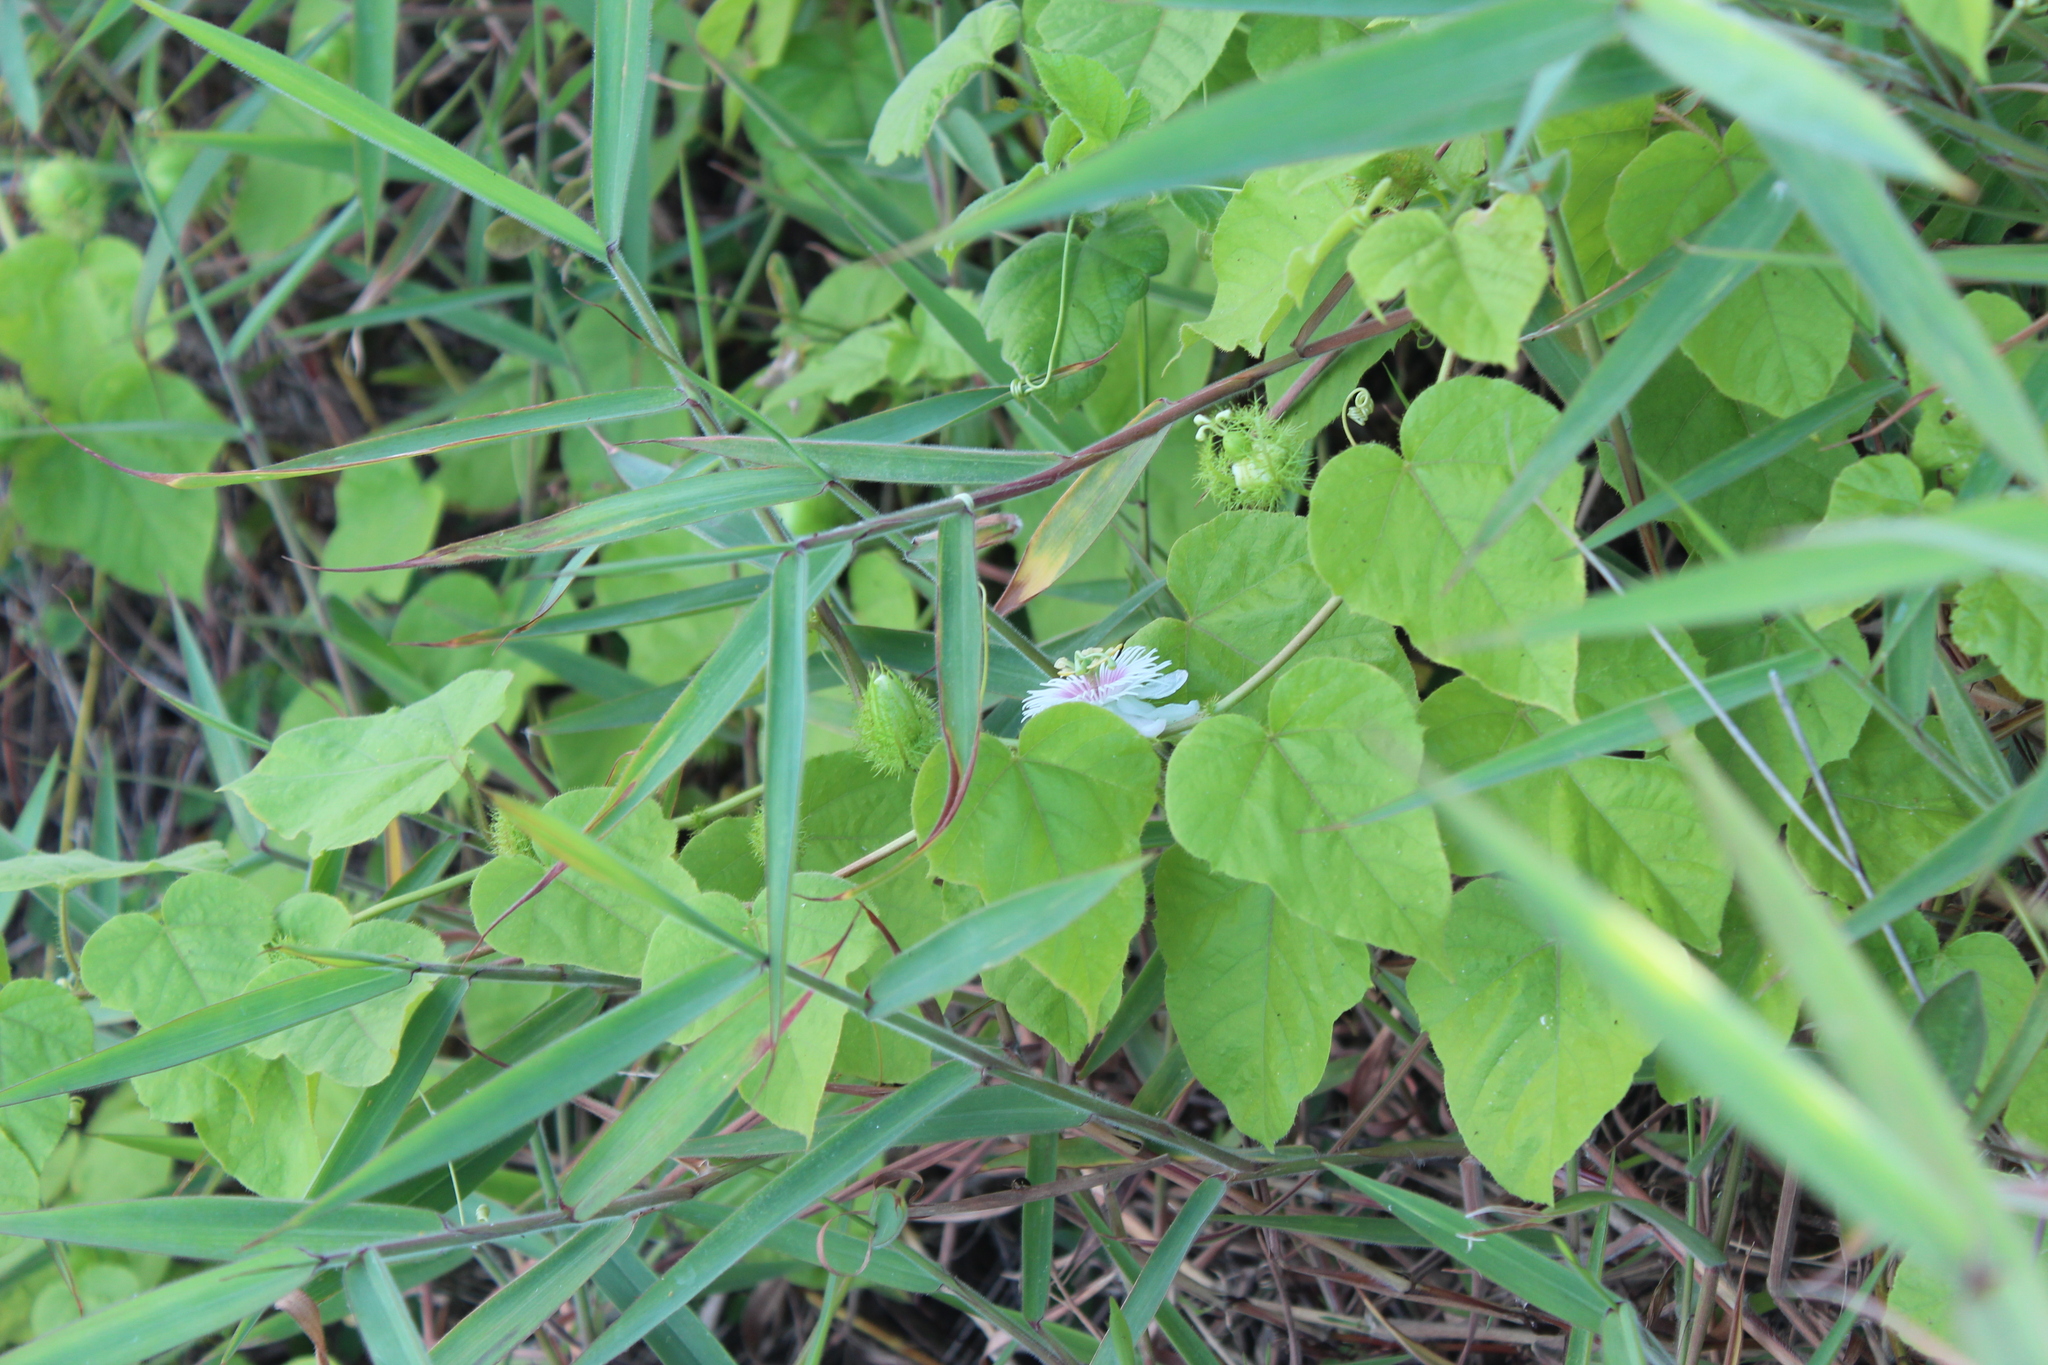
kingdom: Plantae
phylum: Tracheophyta
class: Magnoliopsida
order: Malpighiales
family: Passifloraceae
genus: Passiflora
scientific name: Passiflora vesicaria
